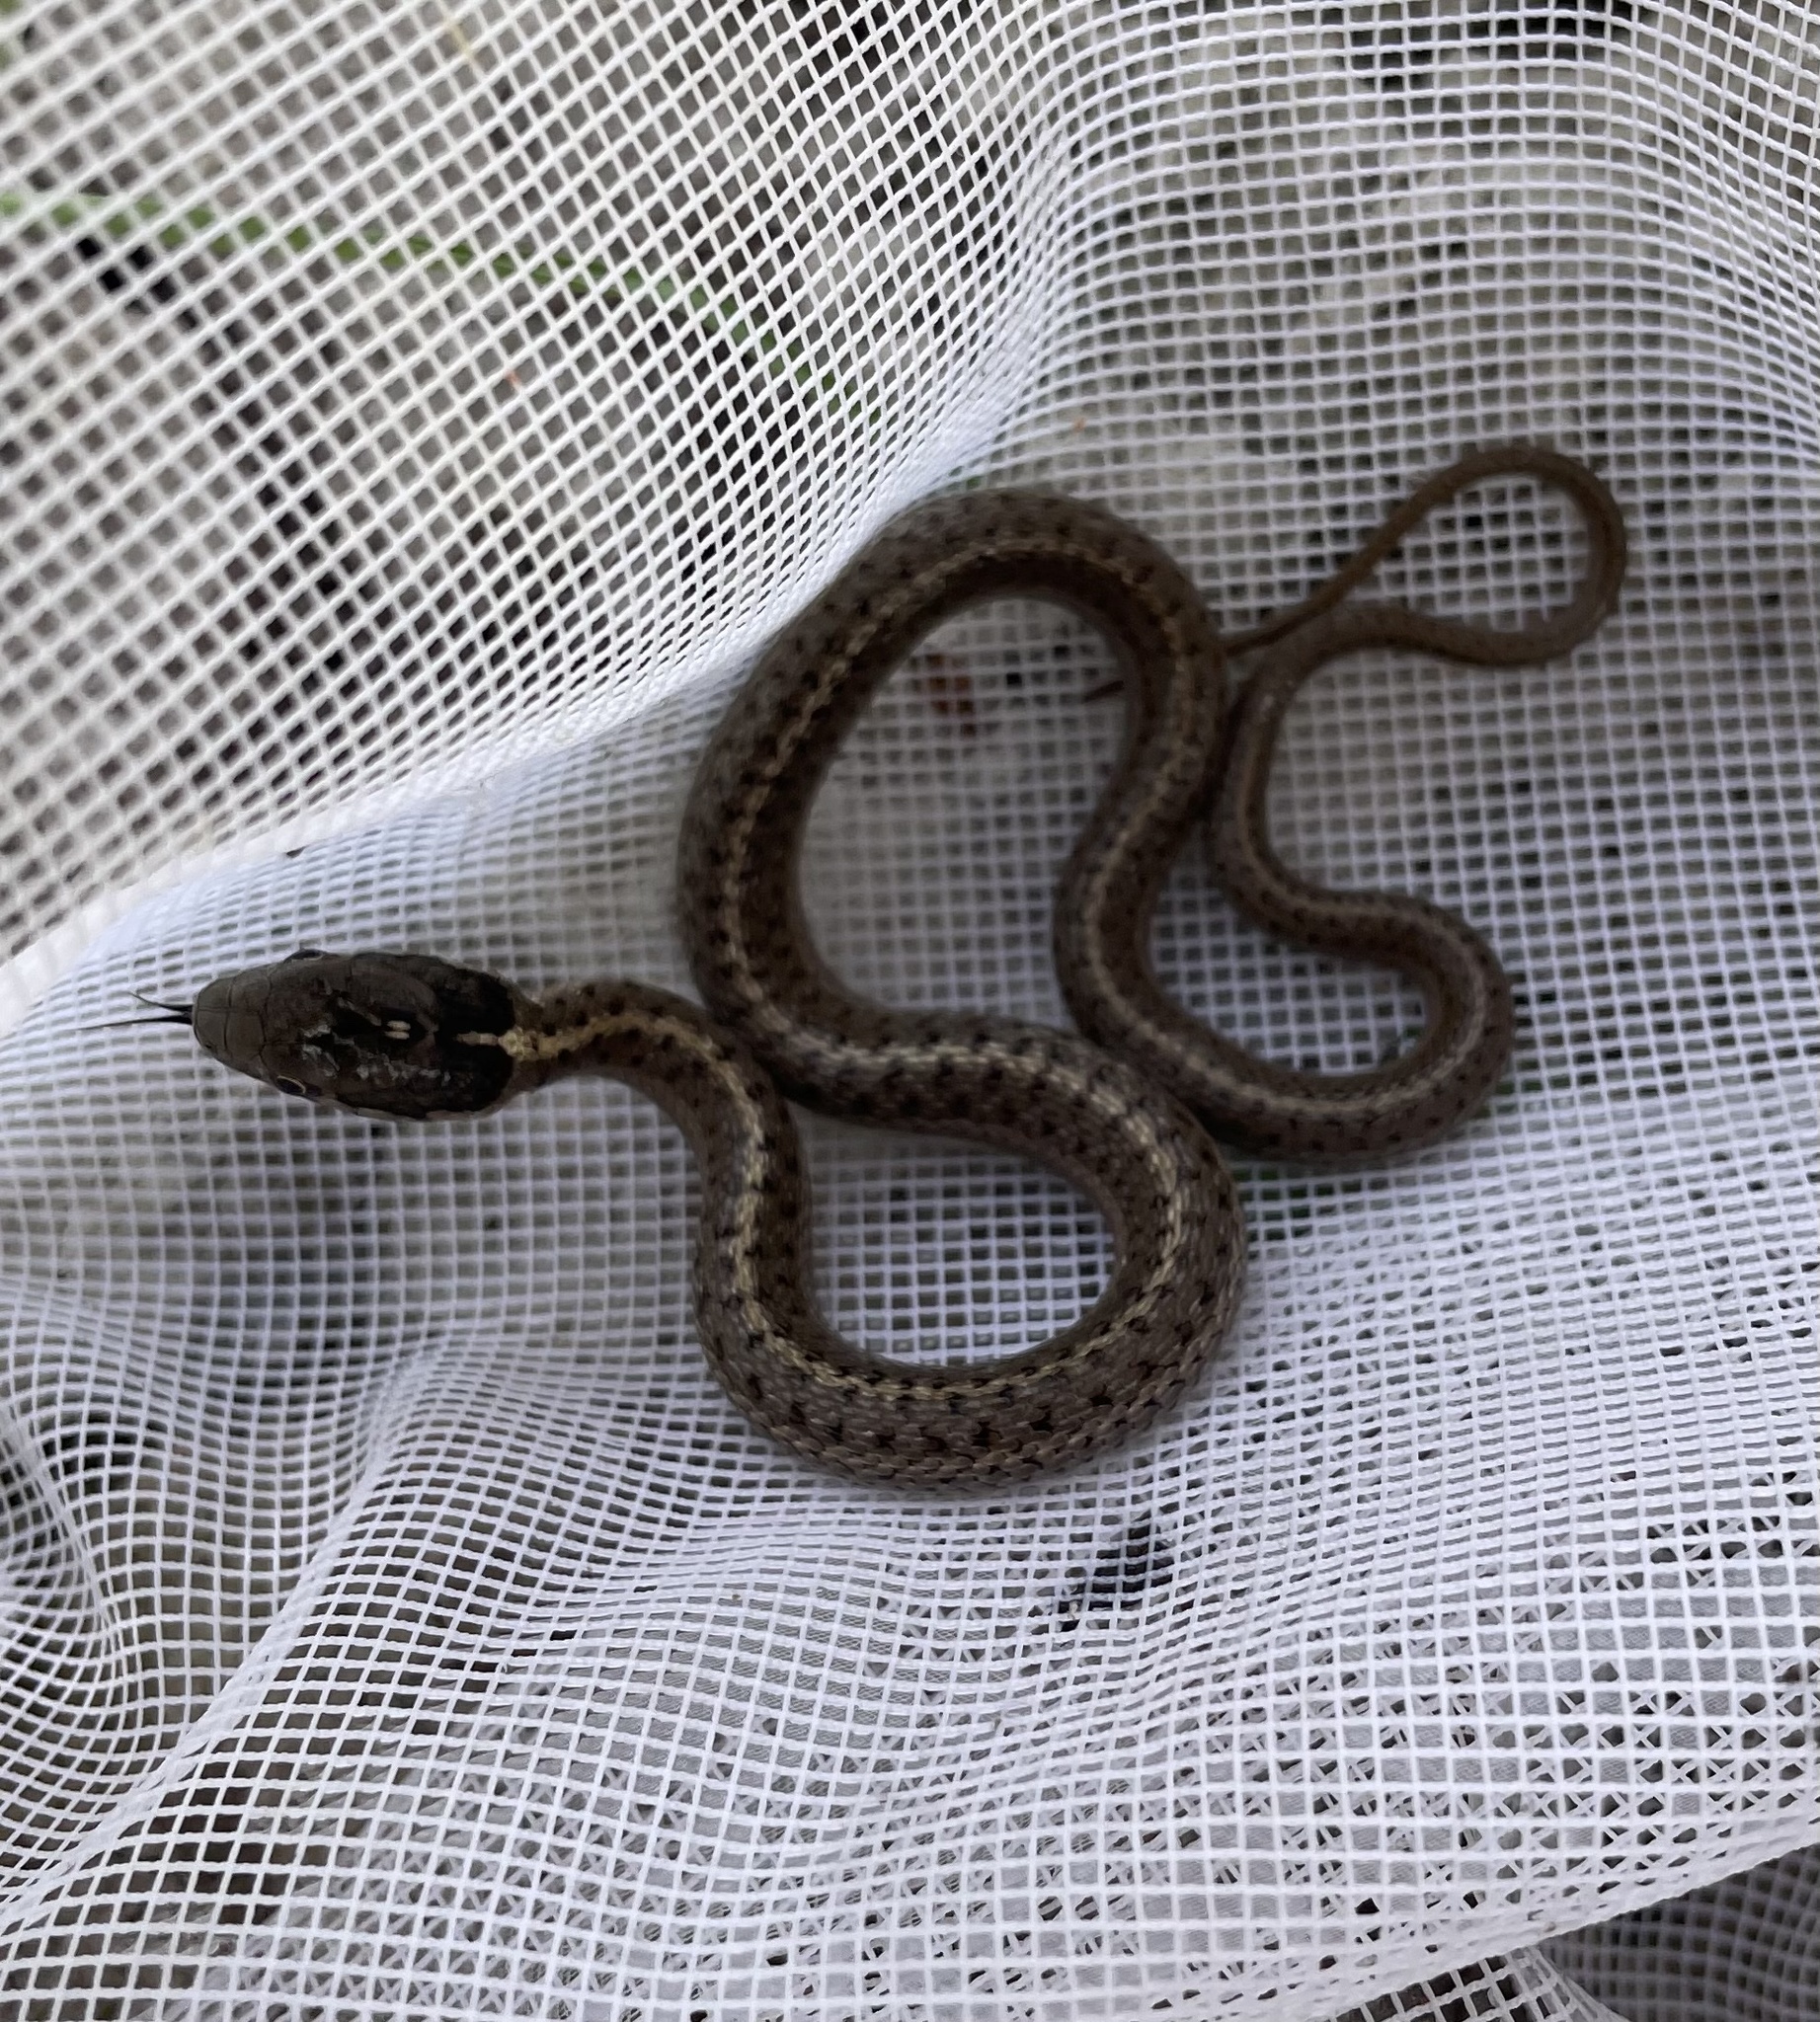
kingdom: Animalia
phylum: Chordata
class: Squamata
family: Colubridae
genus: Thamnophis
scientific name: Thamnophis elegans
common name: Western terrestrial garter snake
